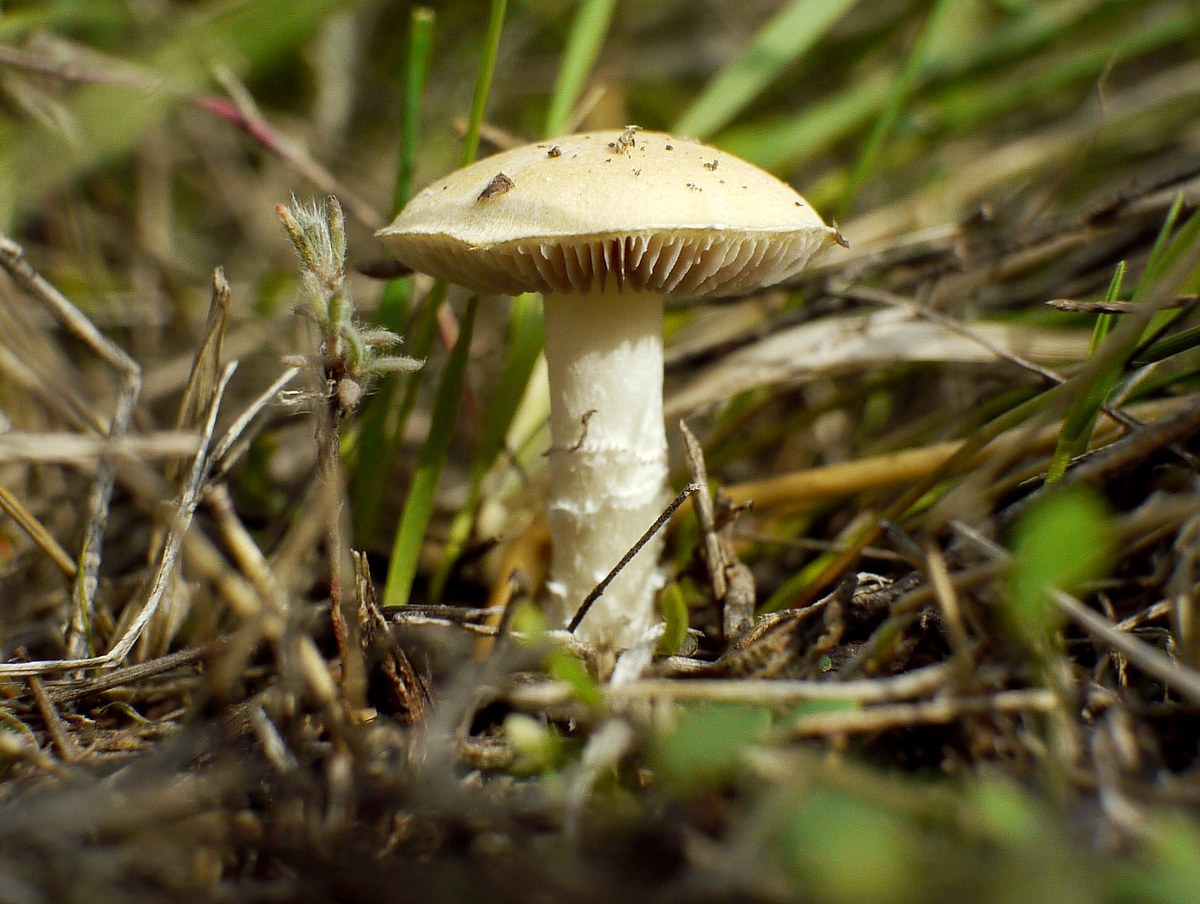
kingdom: Fungi
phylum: Basidiomycota
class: Agaricomycetes
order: Agaricales
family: Hymenogastraceae
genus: Psilocybe
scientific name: Psilocybe coronilla
